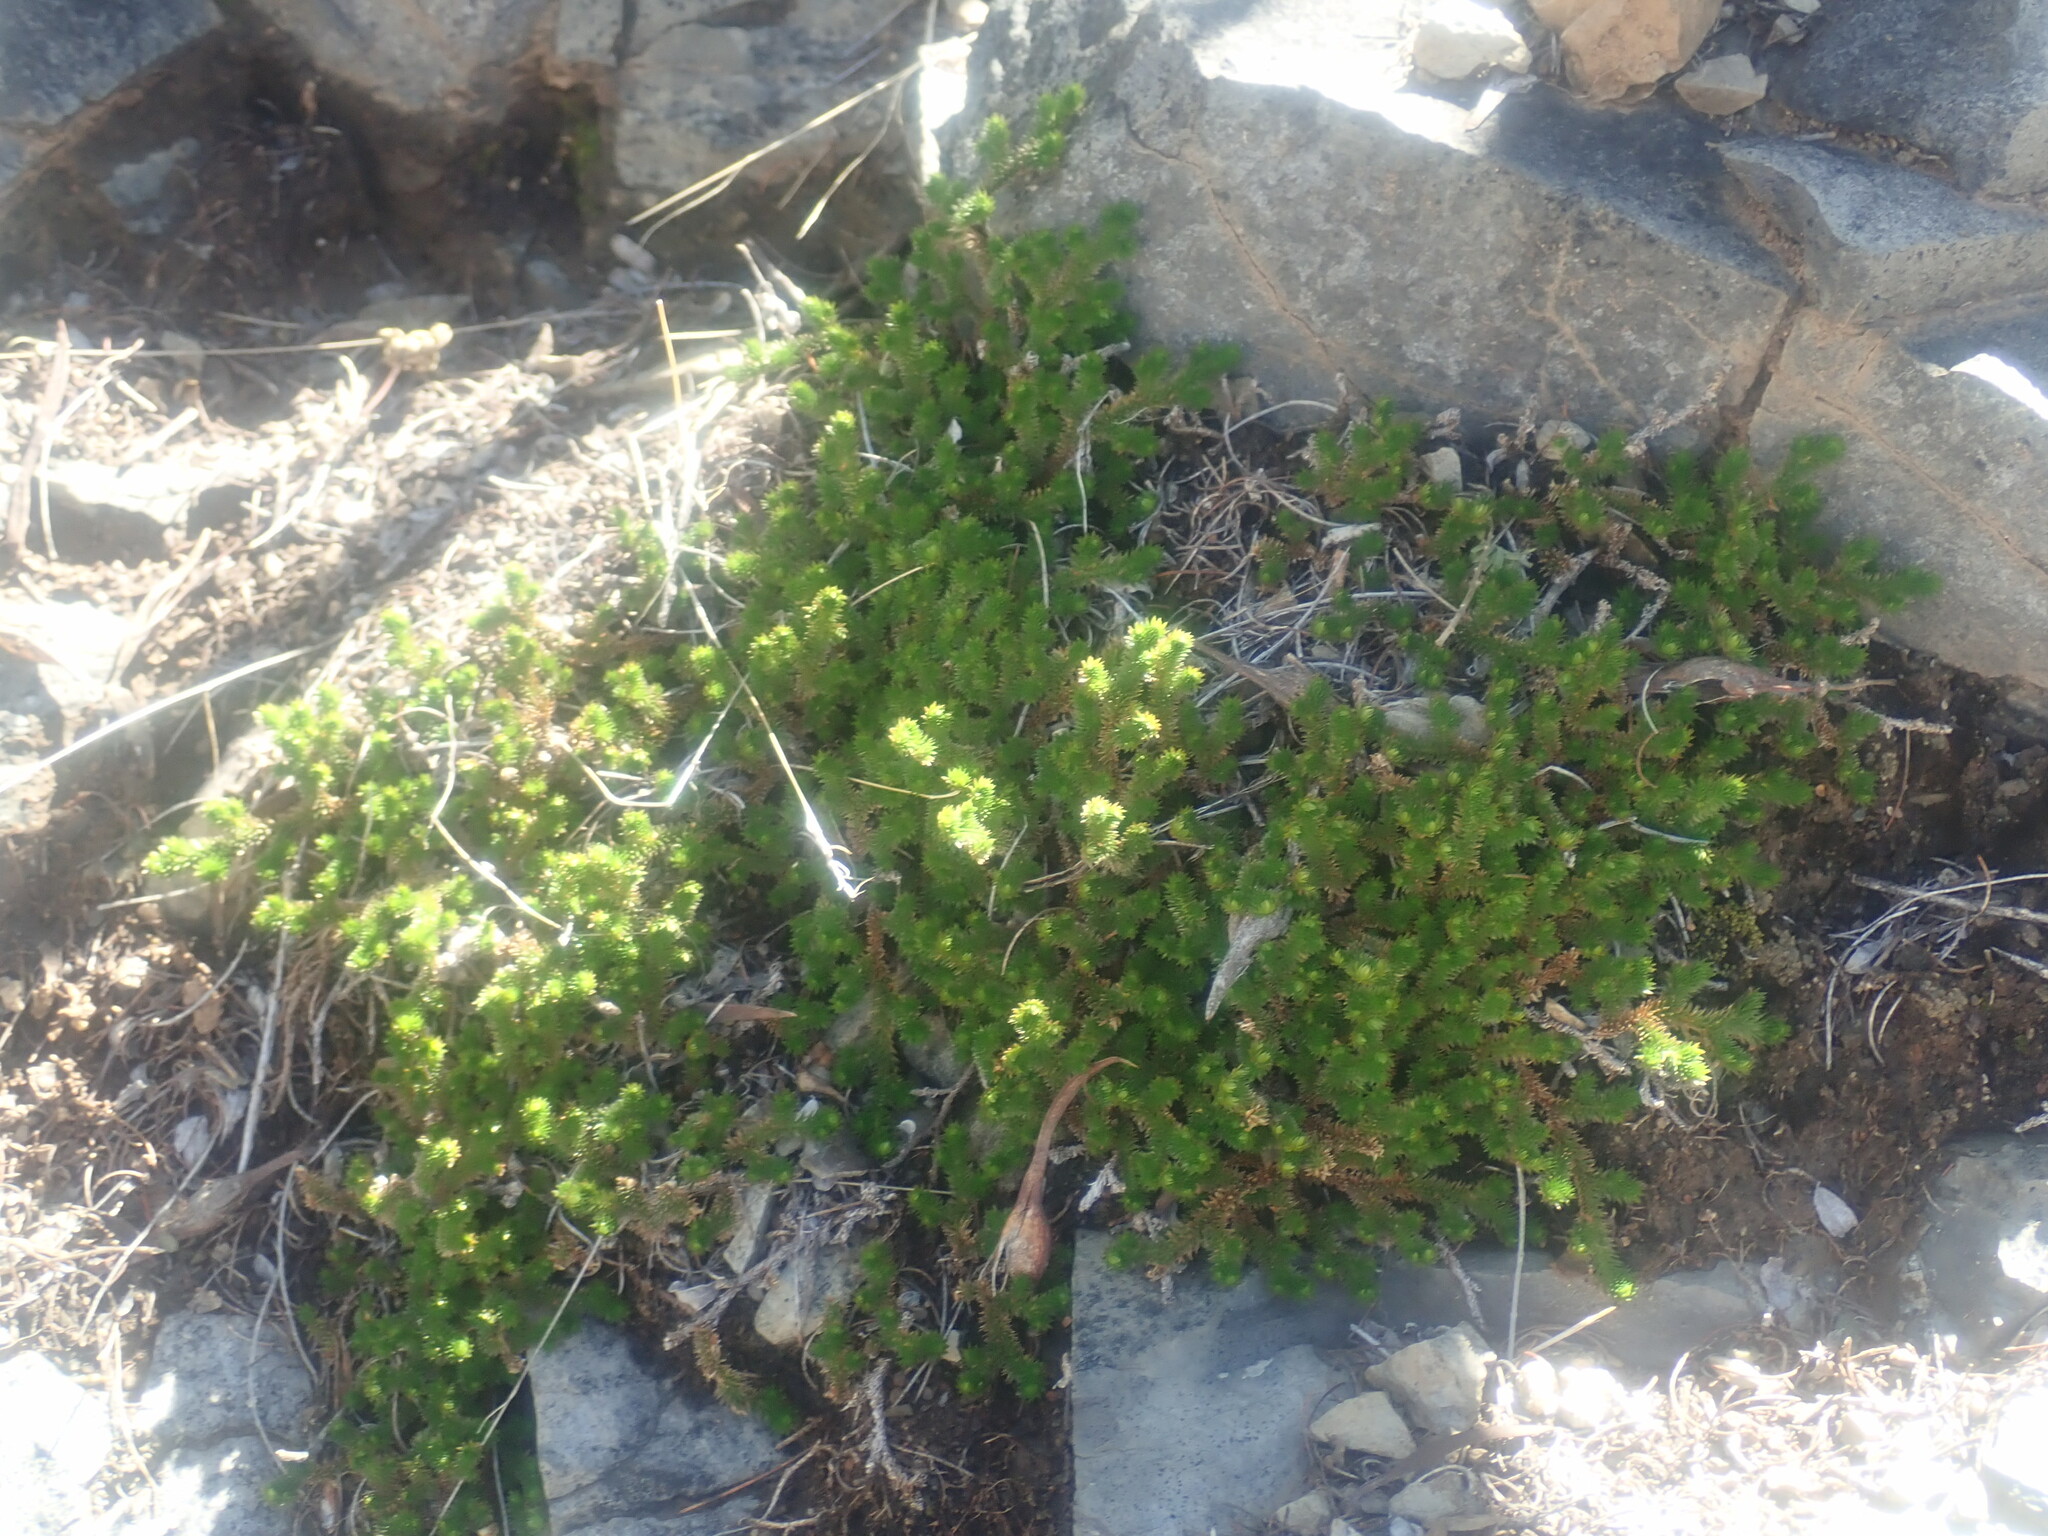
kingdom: Plantae
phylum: Tracheophyta
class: Lycopodiopsida
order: Selaginellales
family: Selaginellaceae
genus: Selaginella
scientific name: Selaginella arizonica
